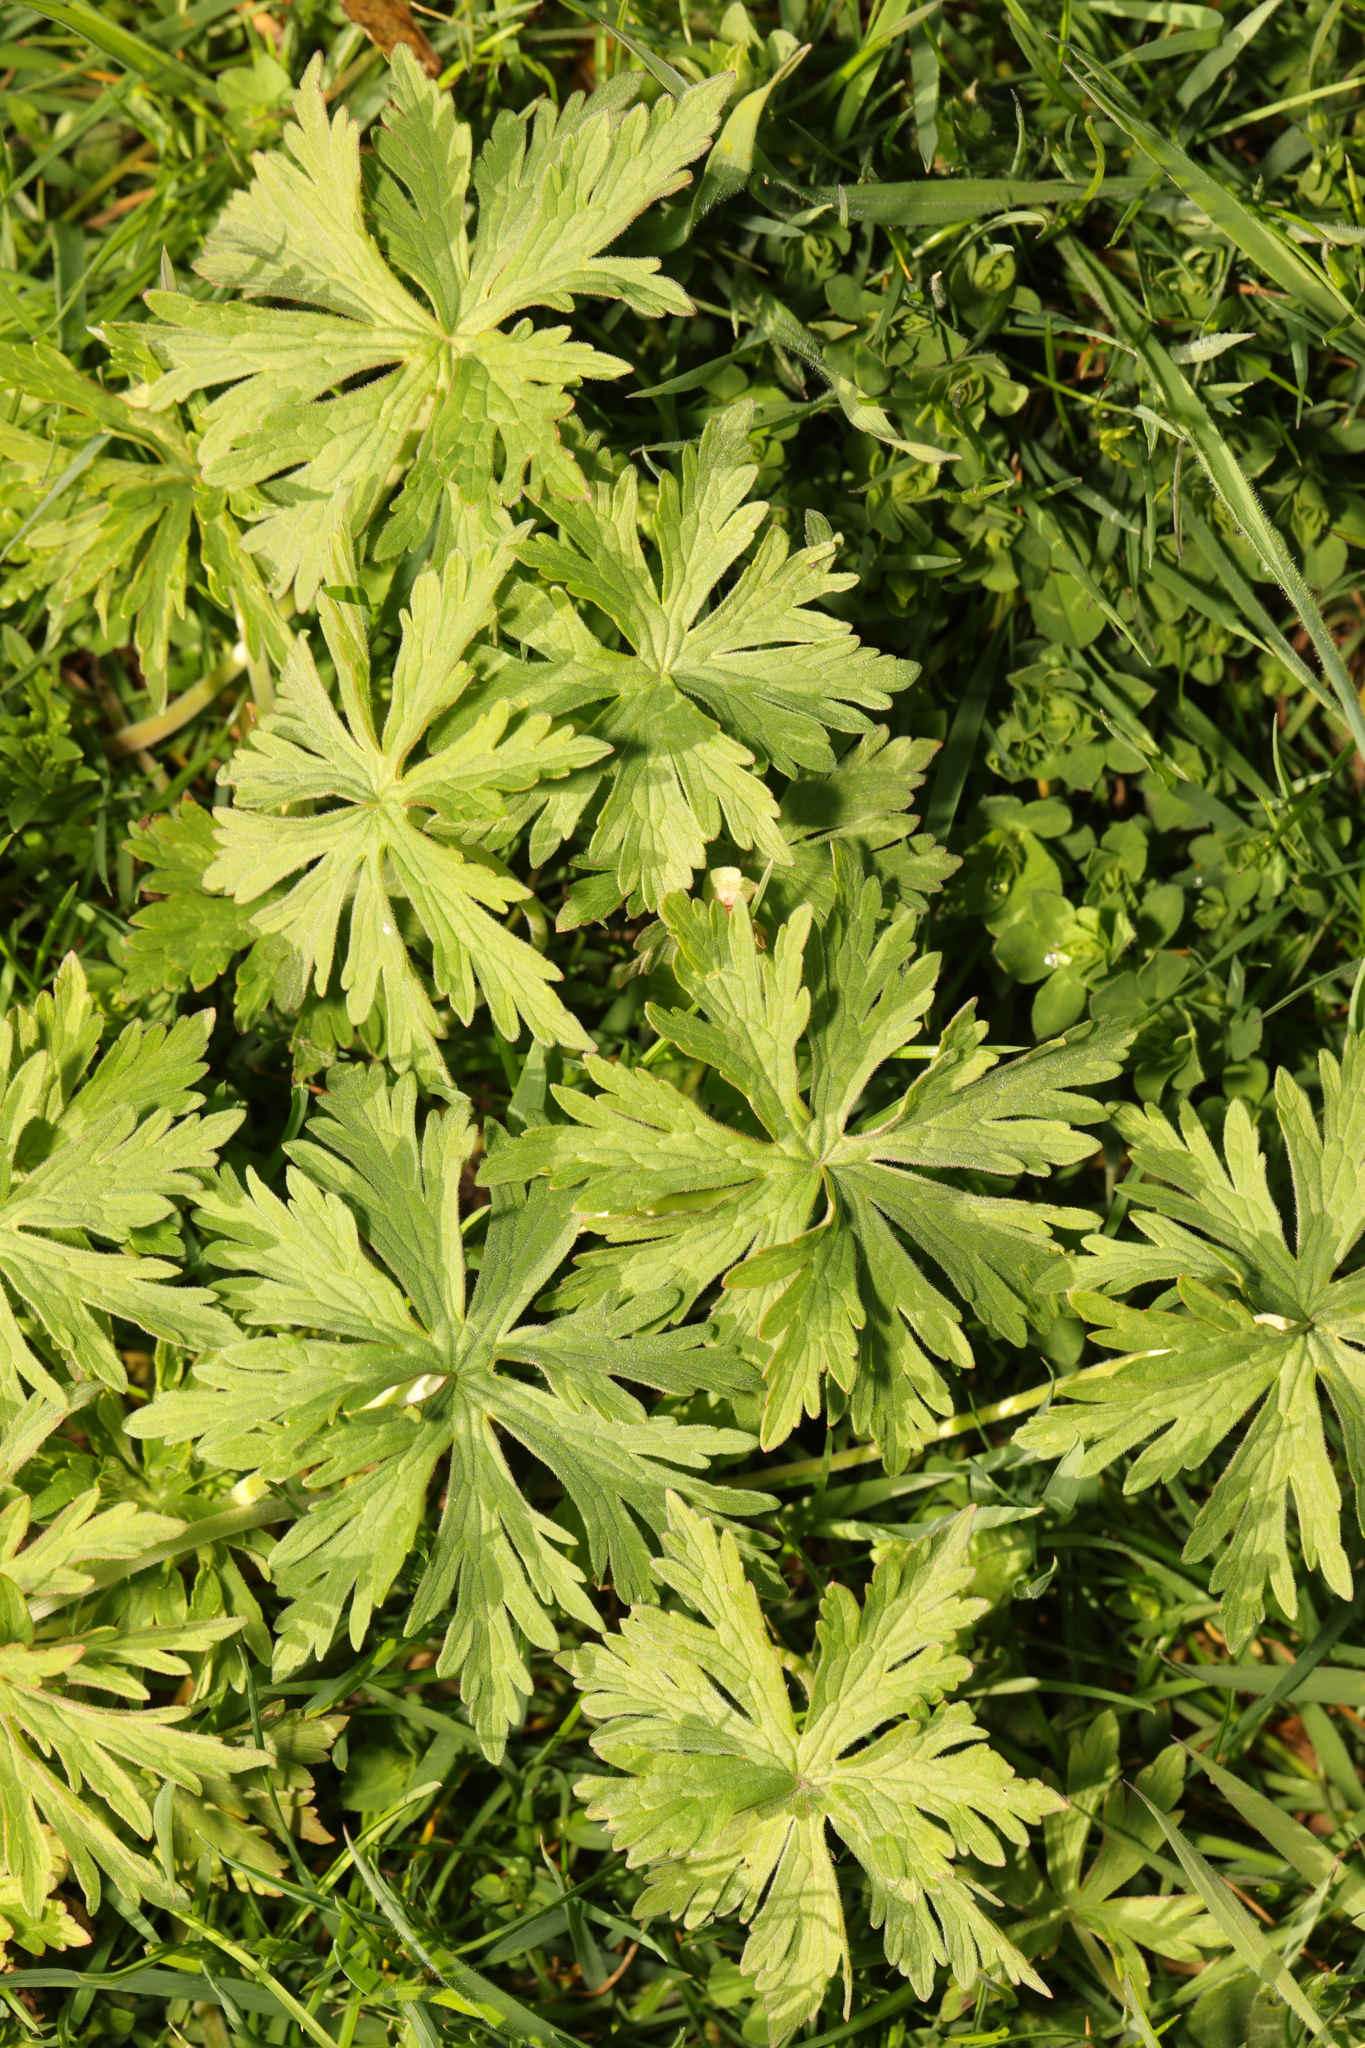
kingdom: Plantae
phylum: Tracheophyta
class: Magnoliopsida
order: Geraniales
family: Geraniaceae
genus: Geranium
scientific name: Geranium pratense
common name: Meadow crane's-bill
